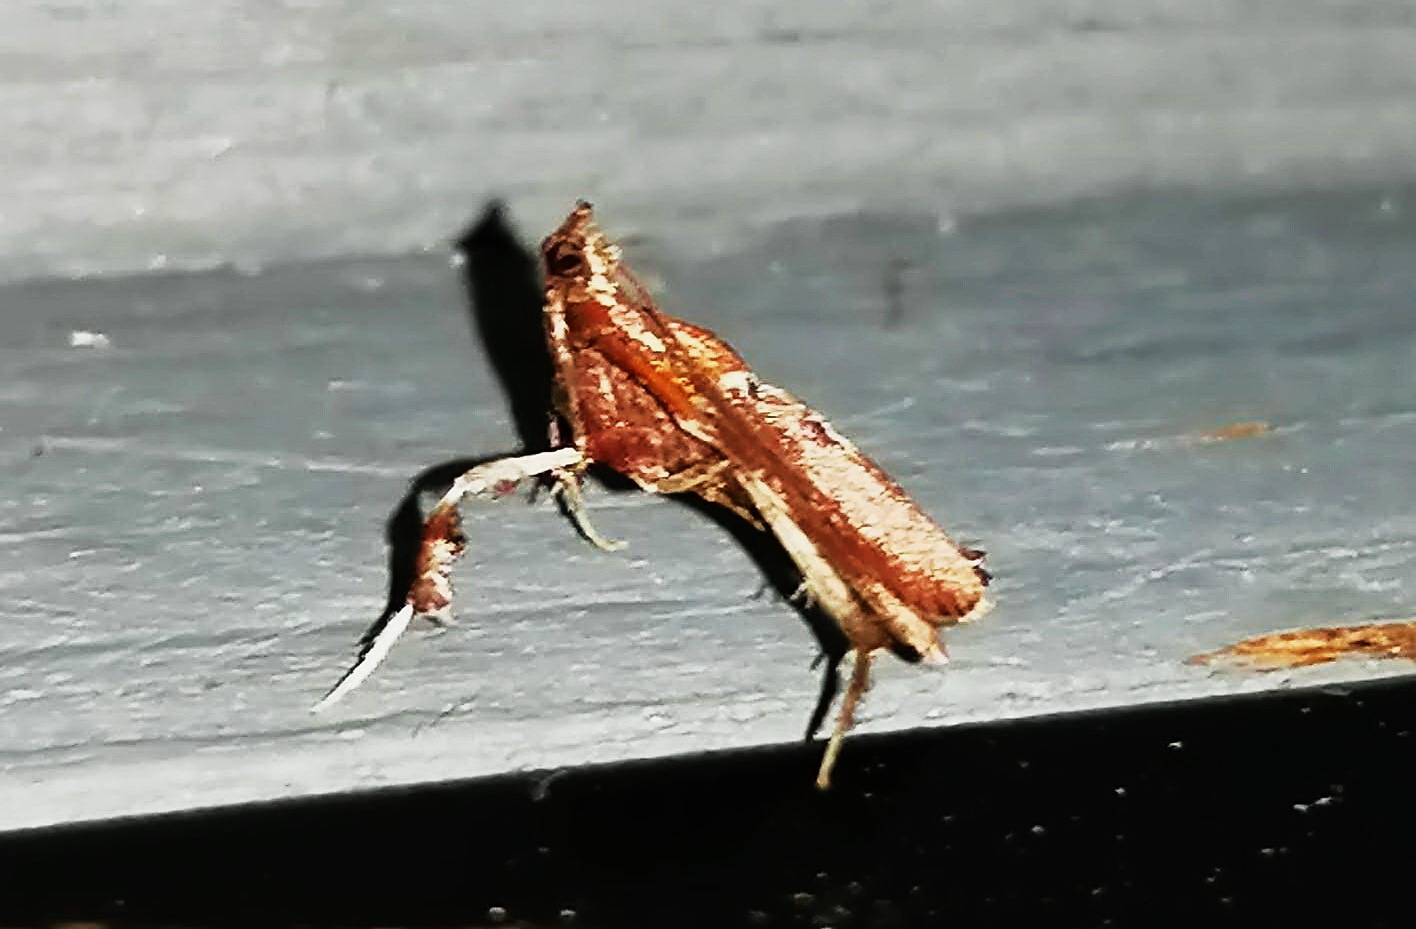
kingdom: Animalia
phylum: Arthropoda
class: Insecta
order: Lepidoptera
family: Pyralidae
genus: Galasa
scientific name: Galasa nigrinodis
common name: Boxwood leaftier moth
